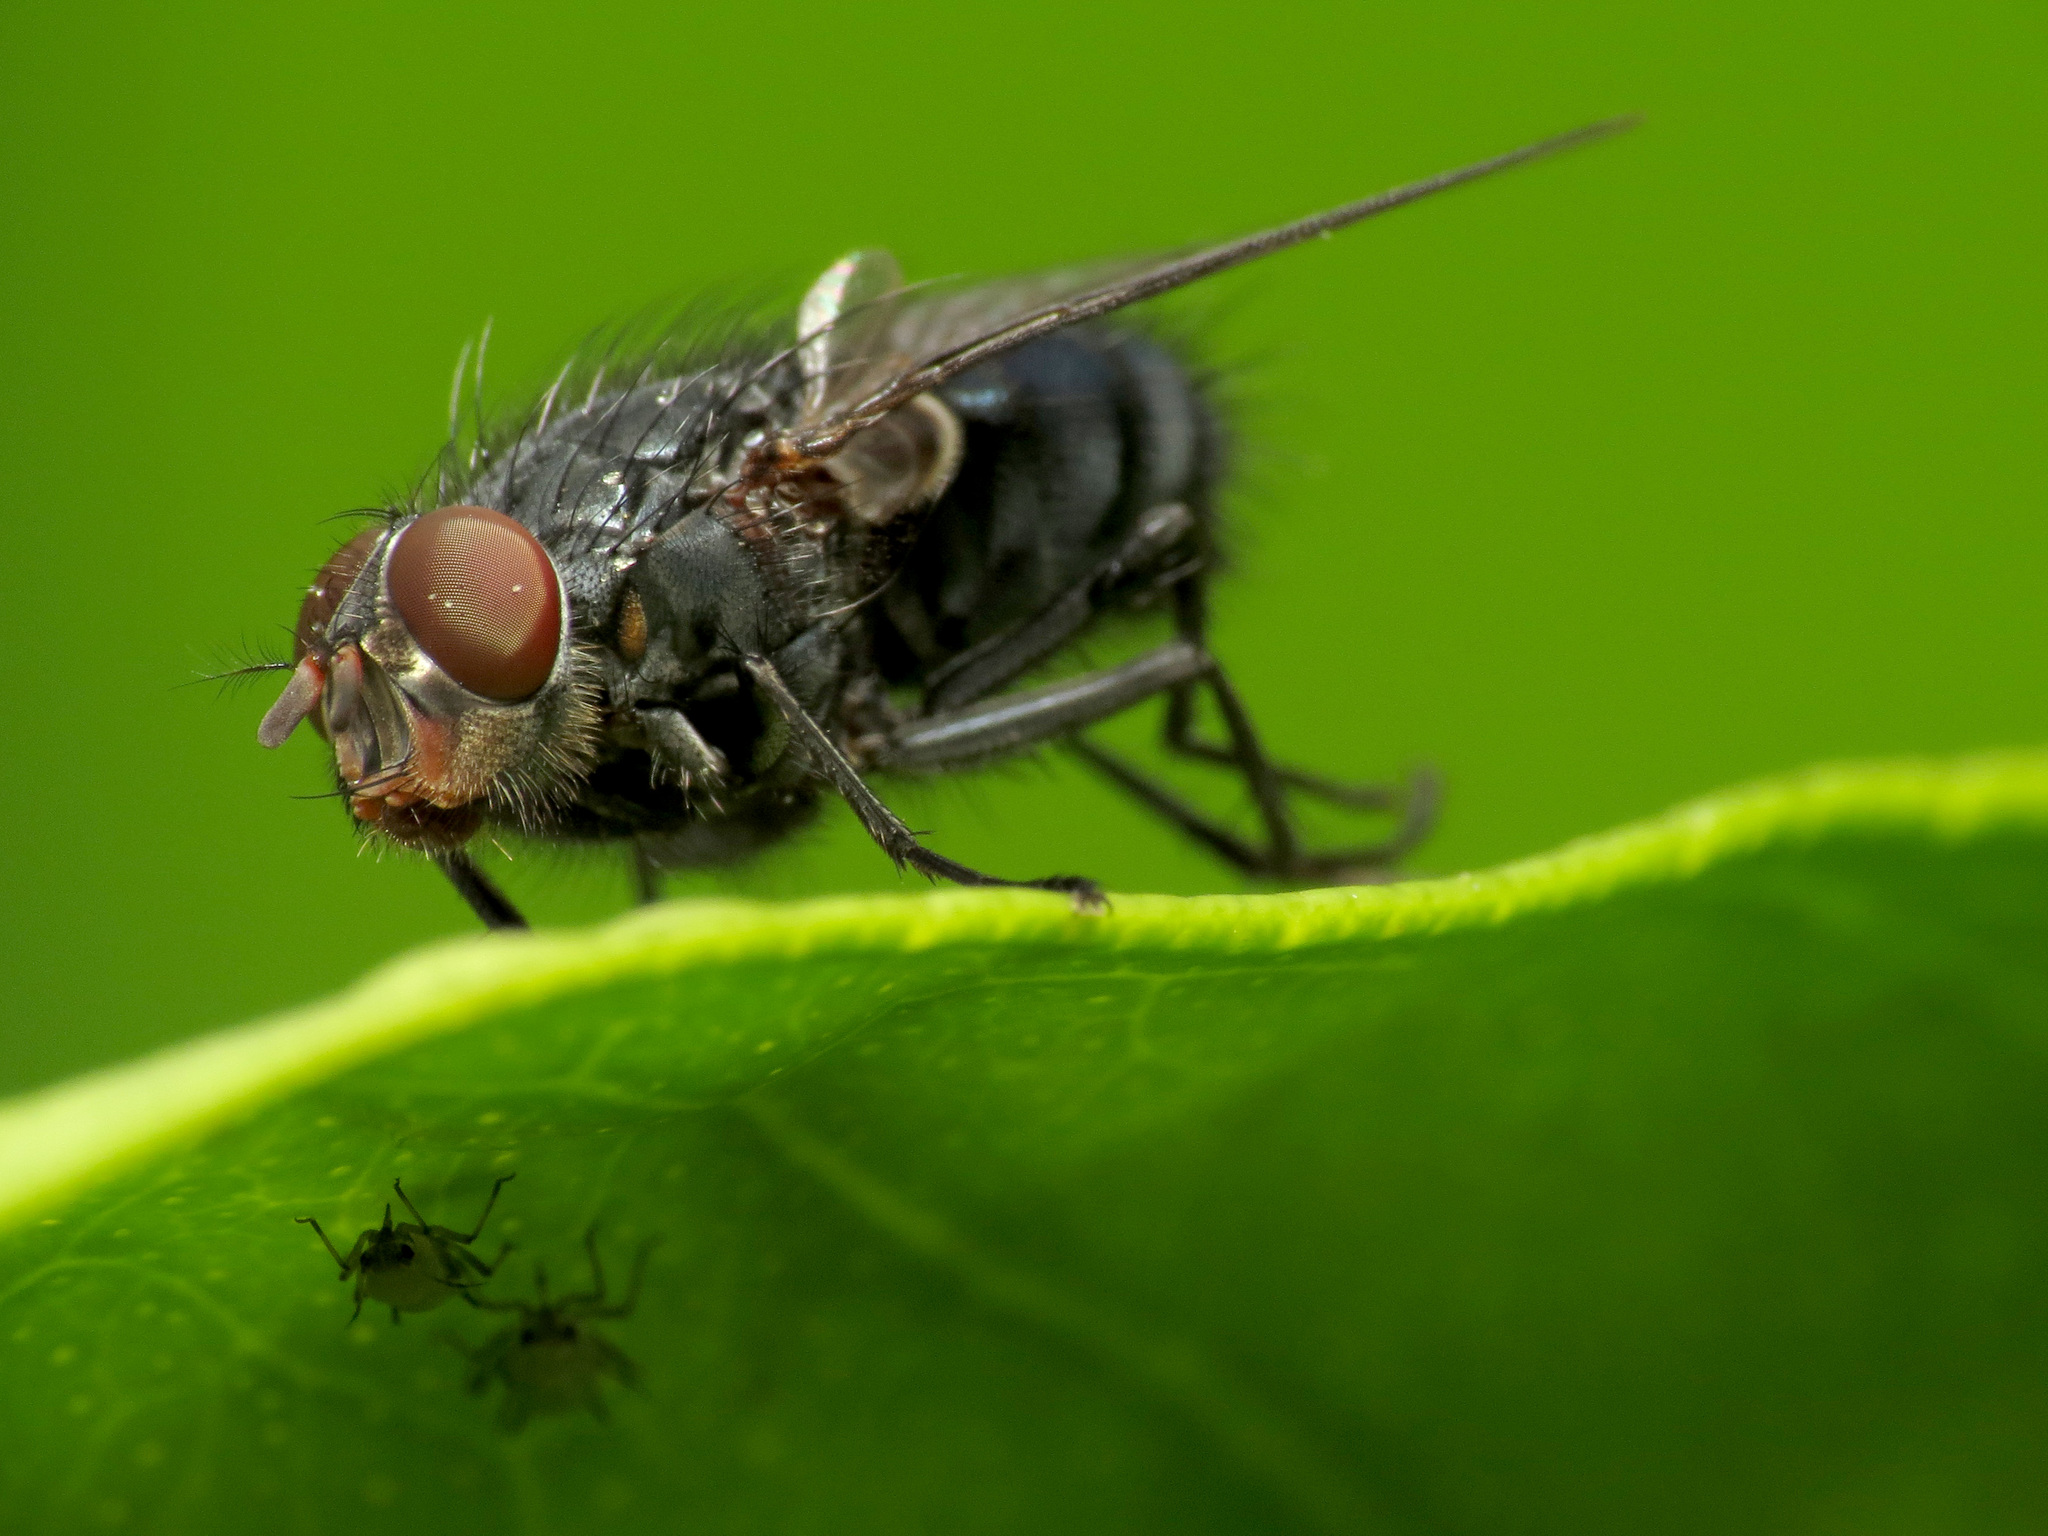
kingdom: Animalia
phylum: Arthropoda
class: Insecta
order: Diptera
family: Calliphoridae
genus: Calliphora
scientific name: Calliphora vicina
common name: Common blow flie
